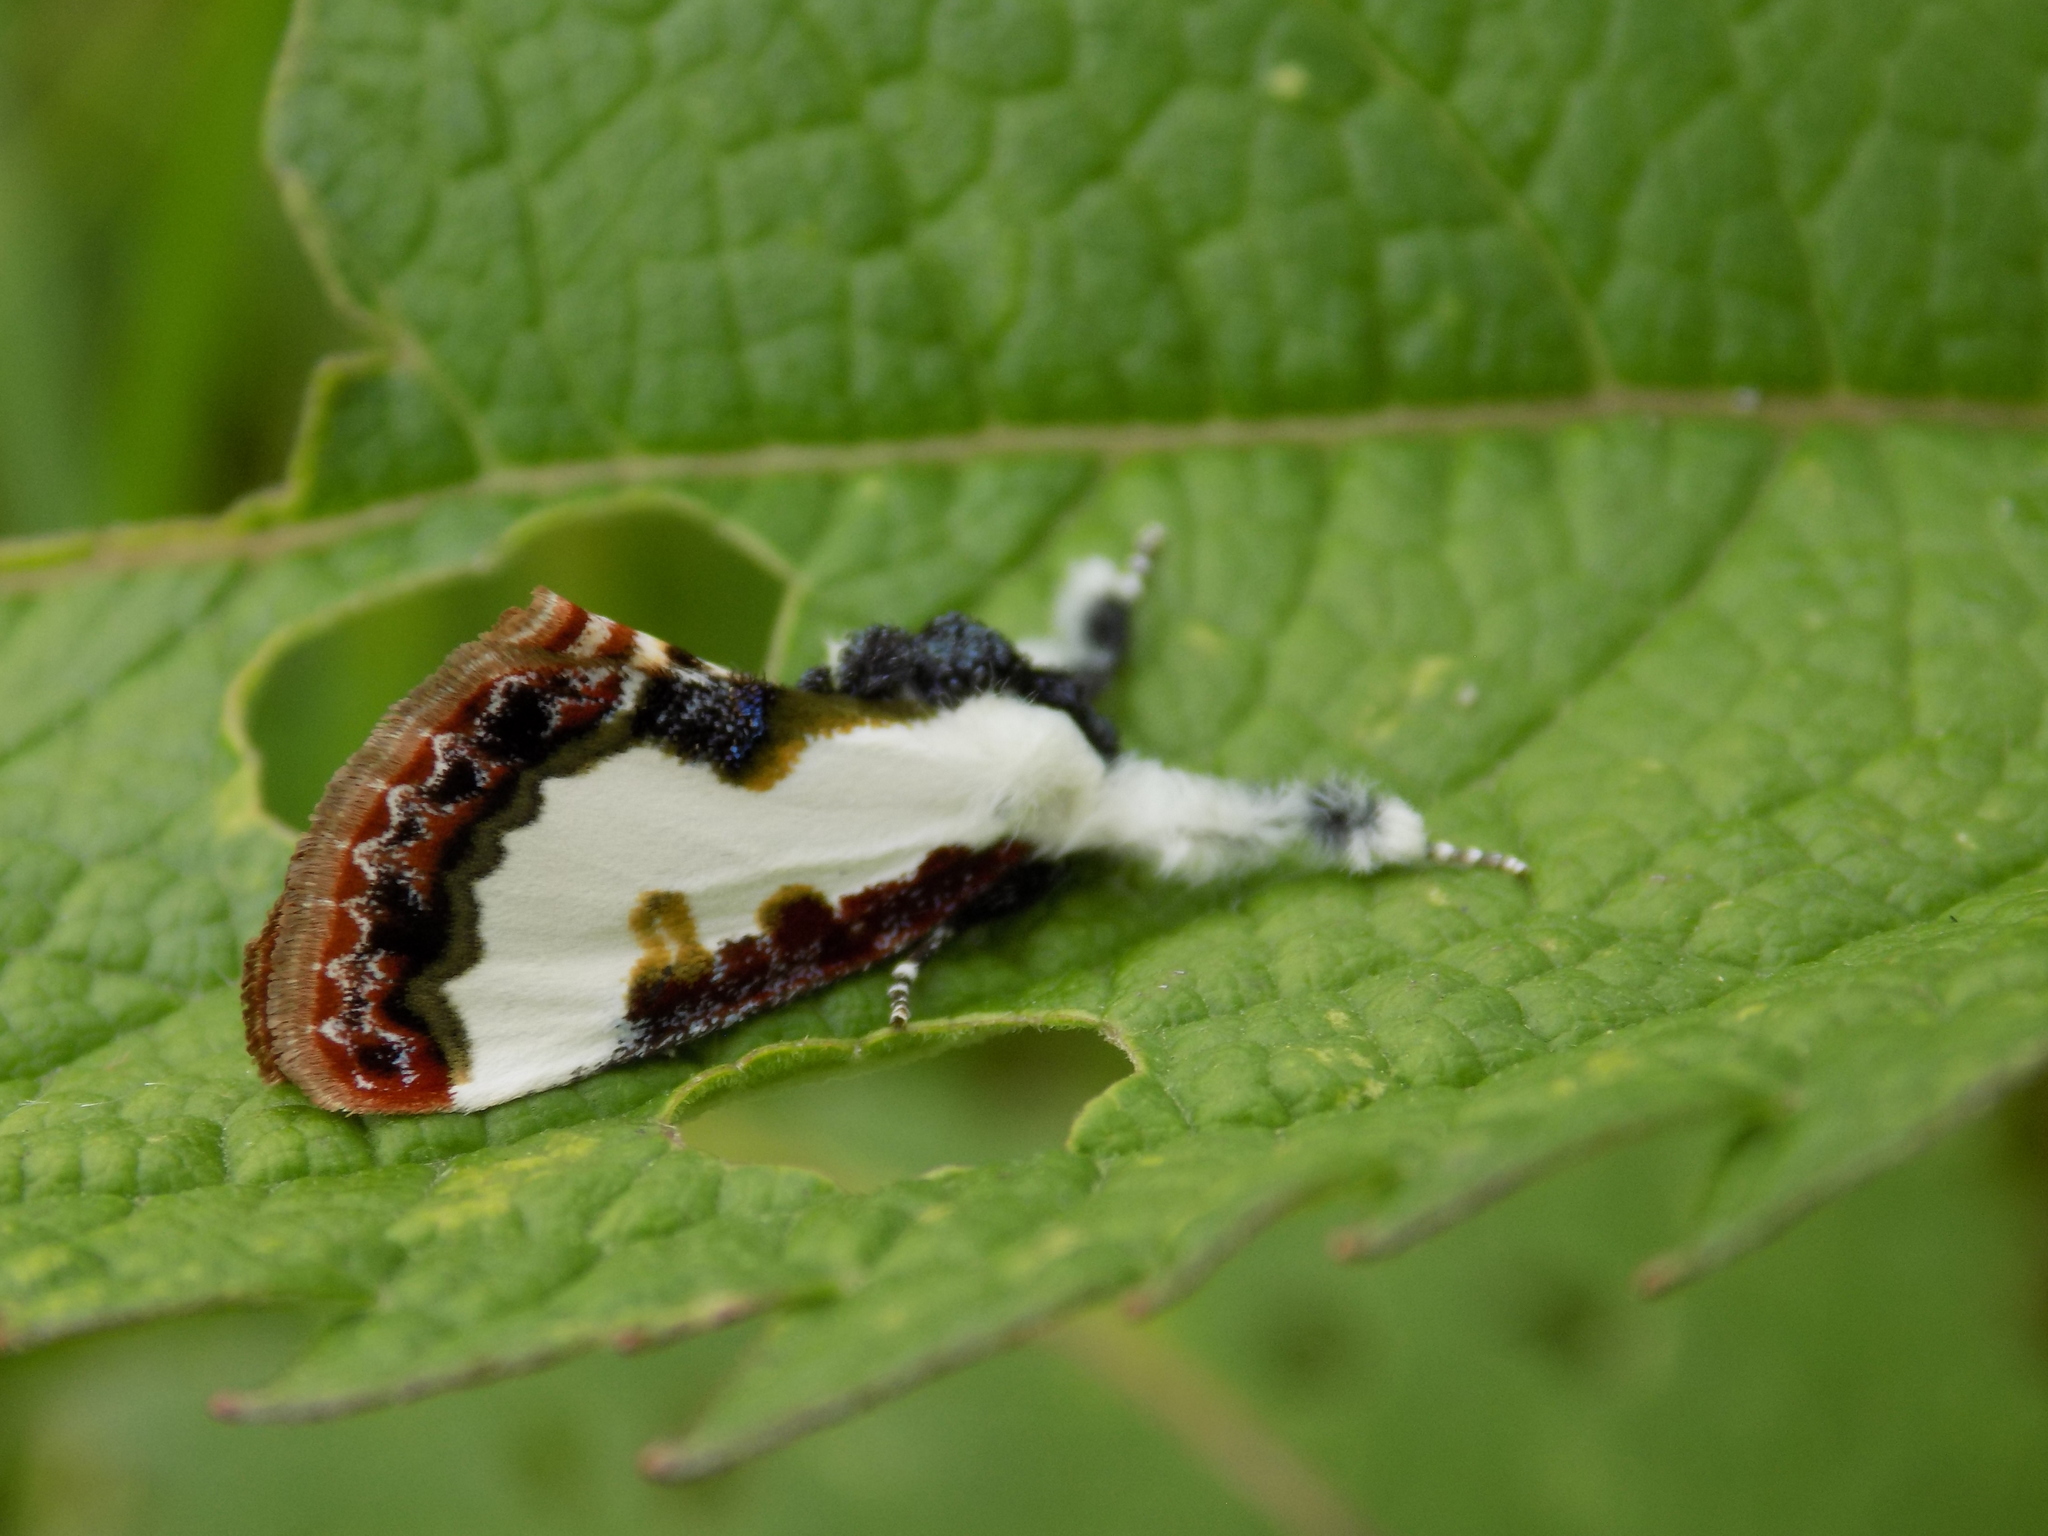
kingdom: Animalia
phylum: Arthropoda
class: Insecta
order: Lepidoptera
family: Noctuidae
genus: Eudryas
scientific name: Eudryas unio
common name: Pearly wood-nymph
